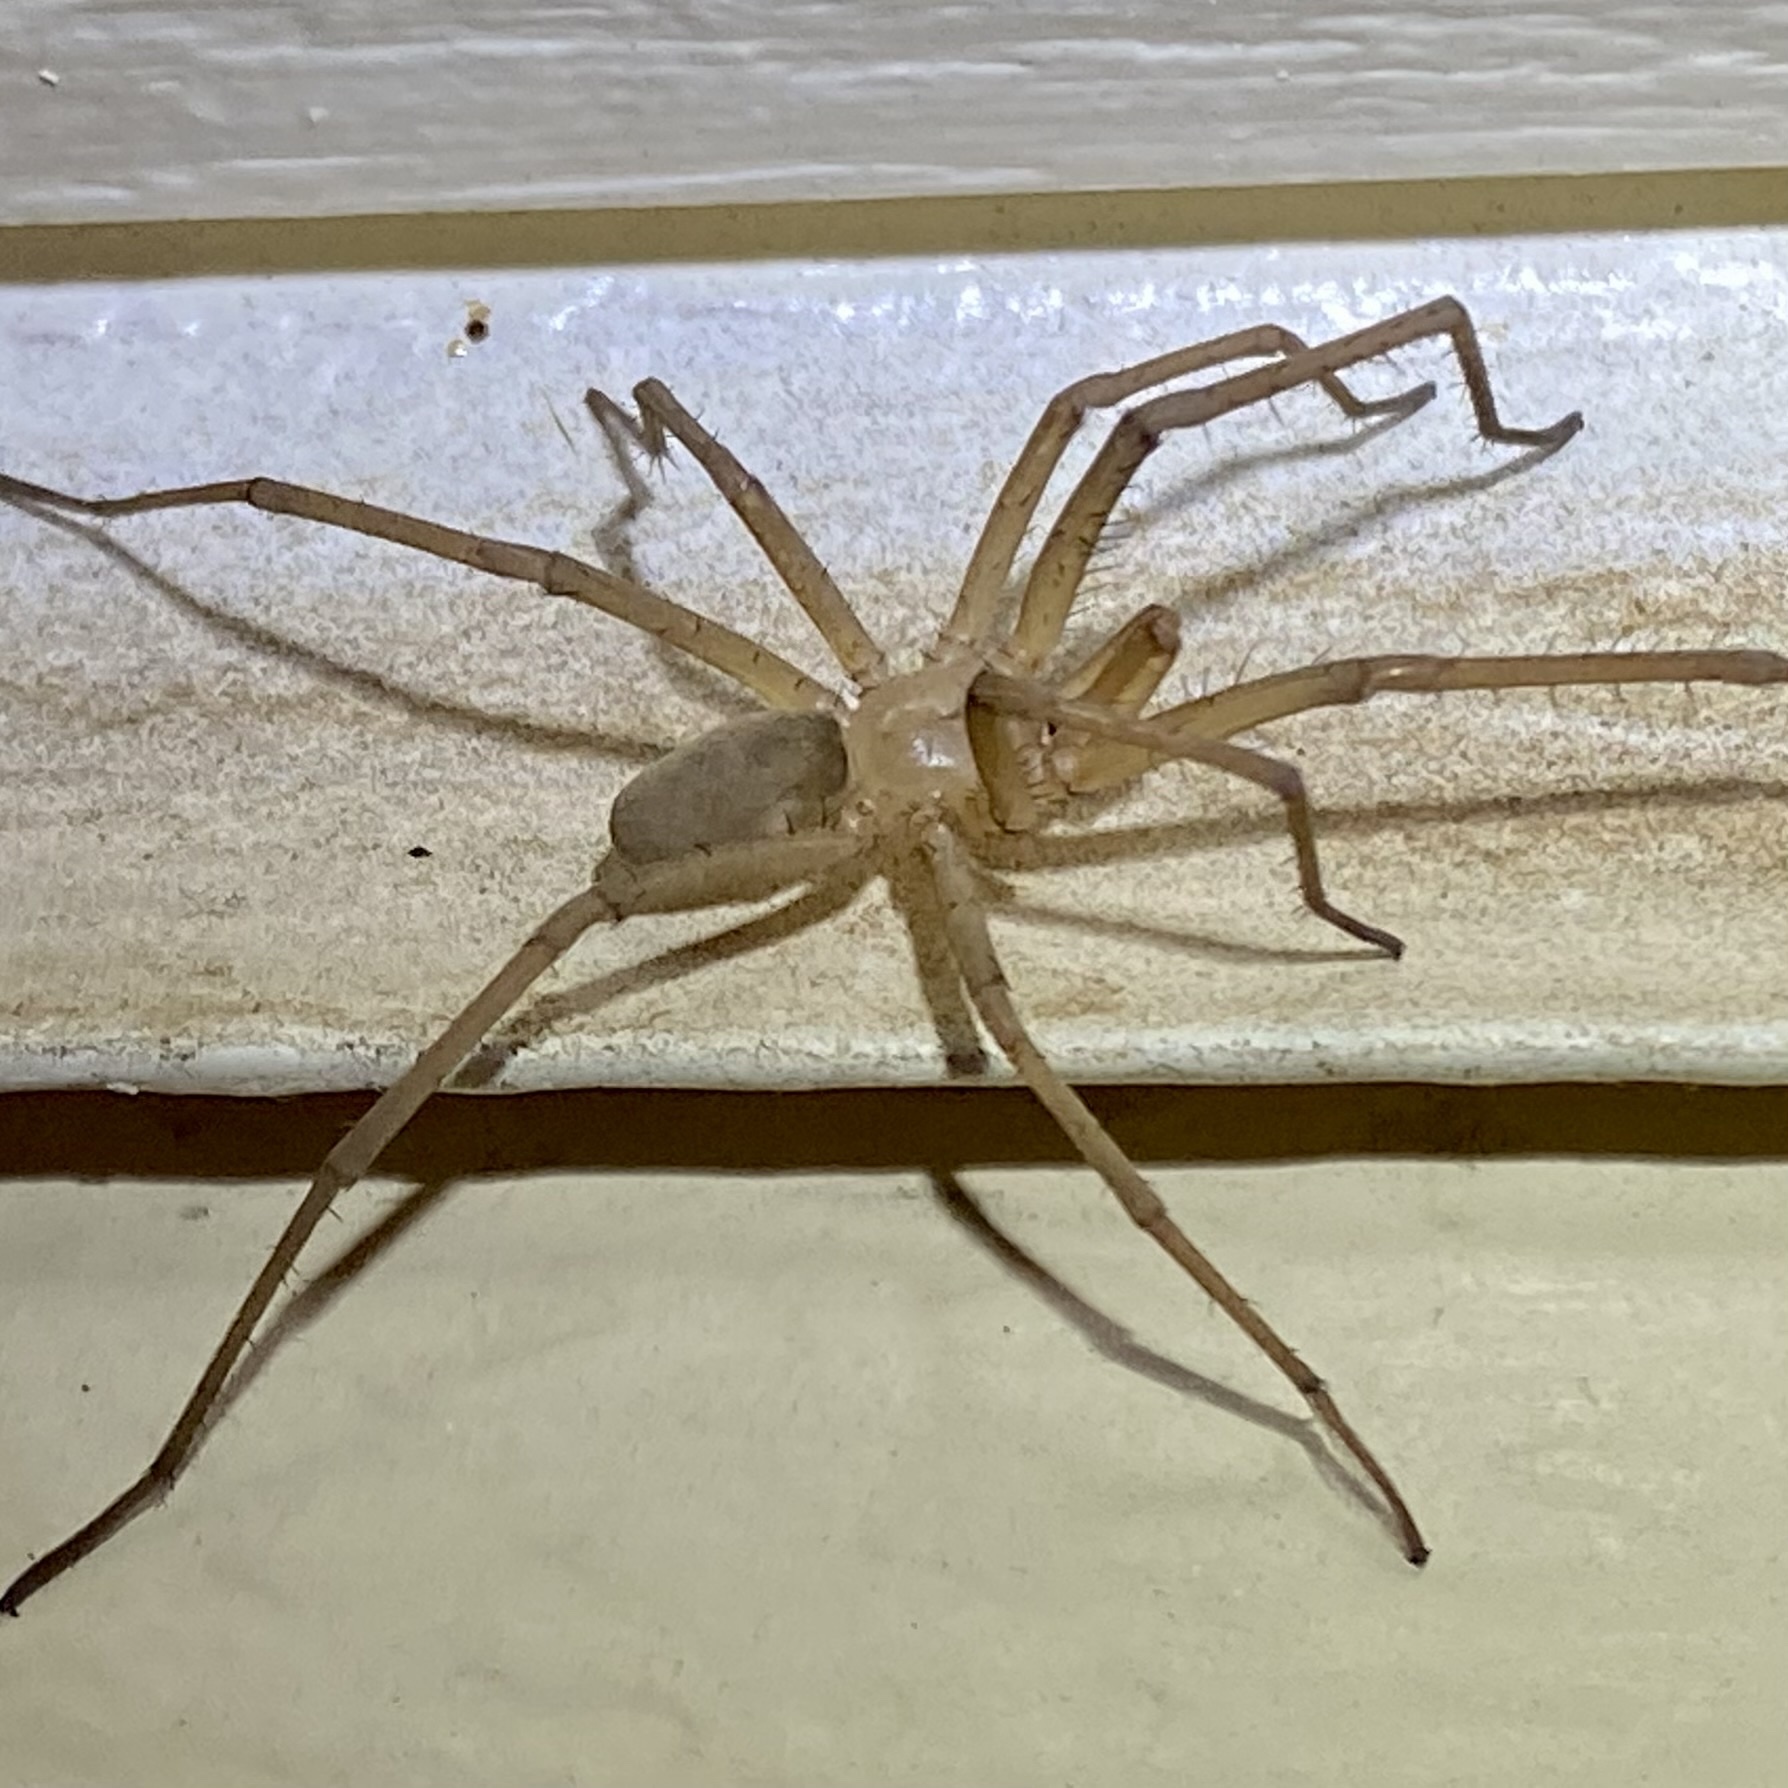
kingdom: Animalia
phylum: Arthropoda
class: Arachnida
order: Araneae
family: Filistatidae
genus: Kukulcania
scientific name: Kukulcania
